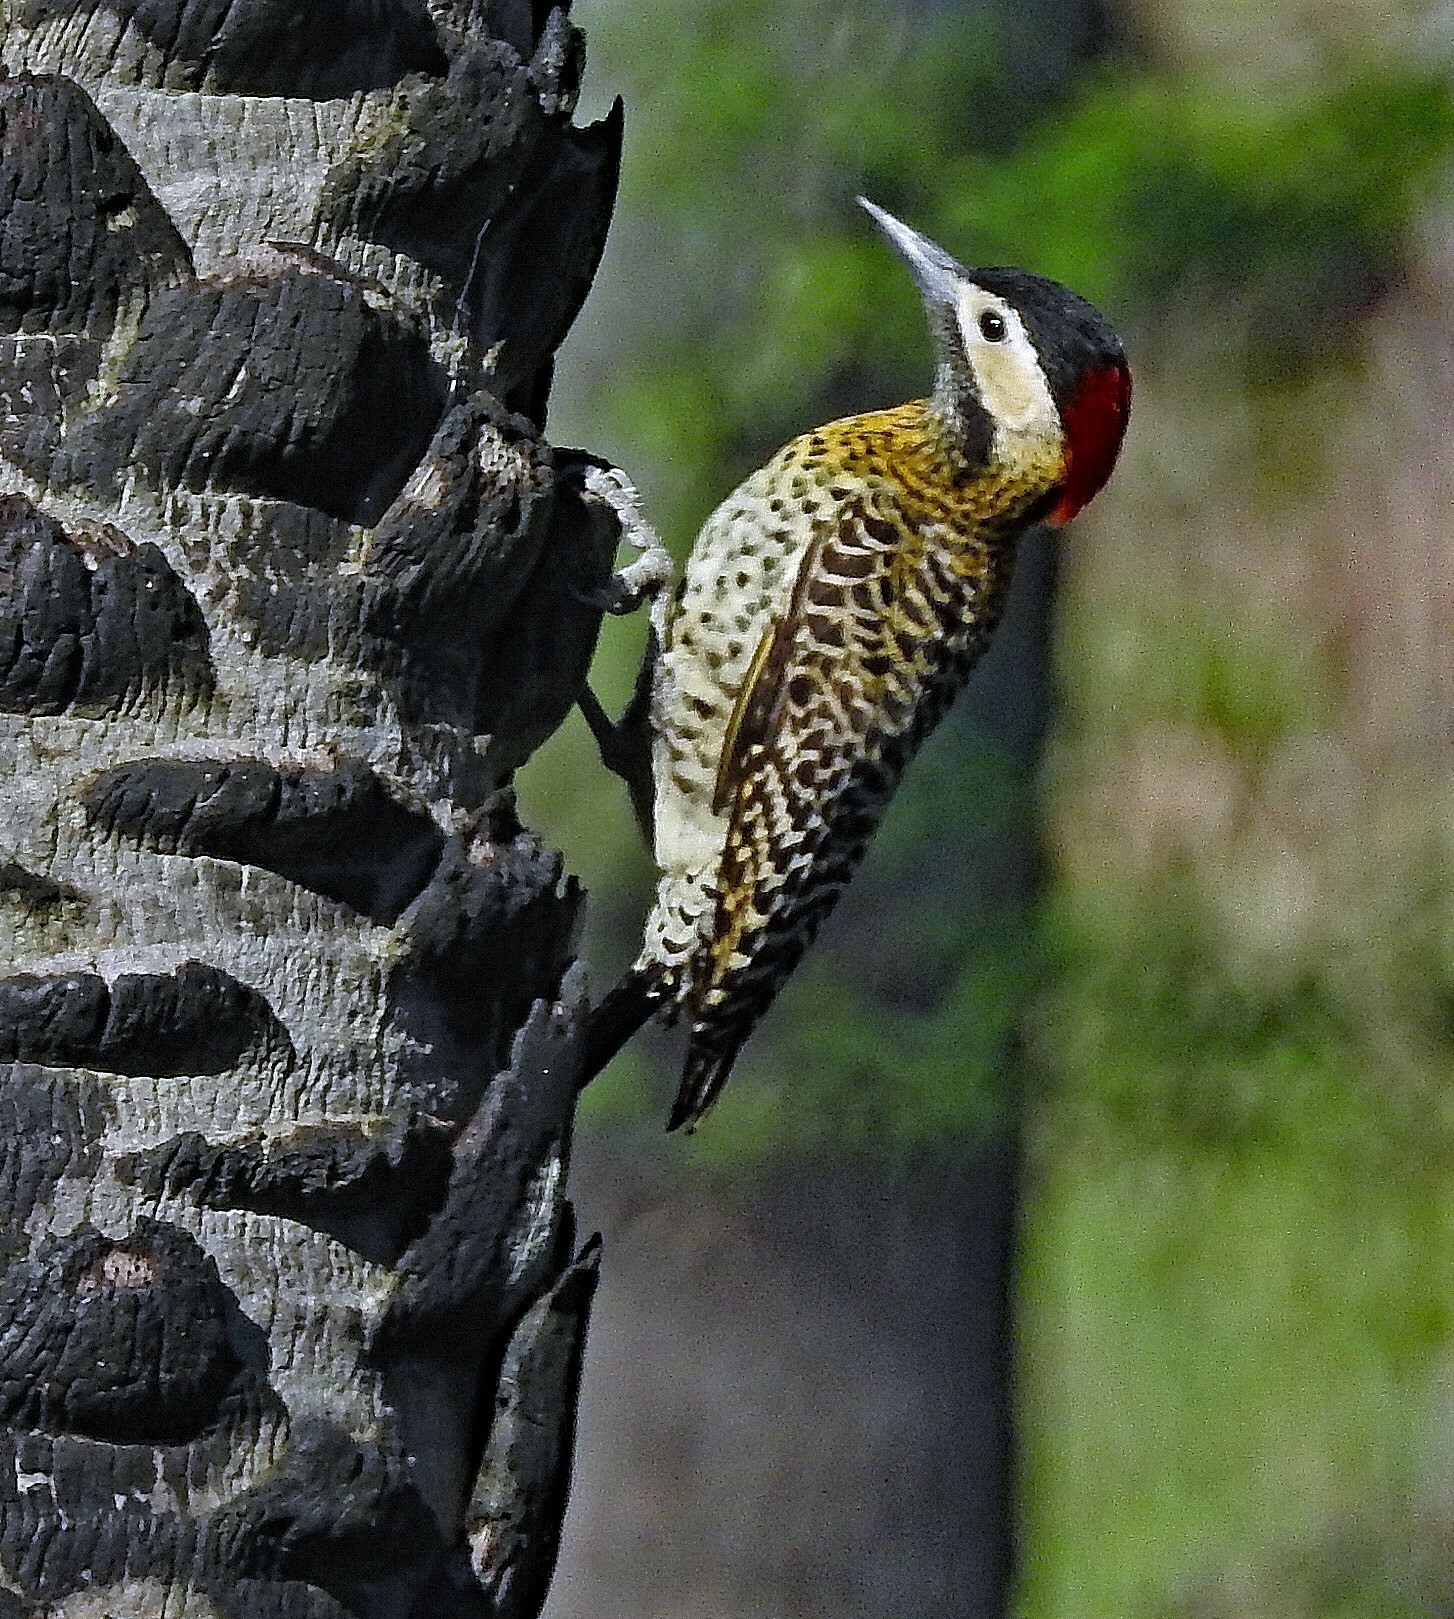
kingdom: Animalia
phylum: Chordata
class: Aves
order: Piciformes
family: Picidae
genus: Colaptes
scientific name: Colaptes melanochloros
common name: Green-barred woodpecker
